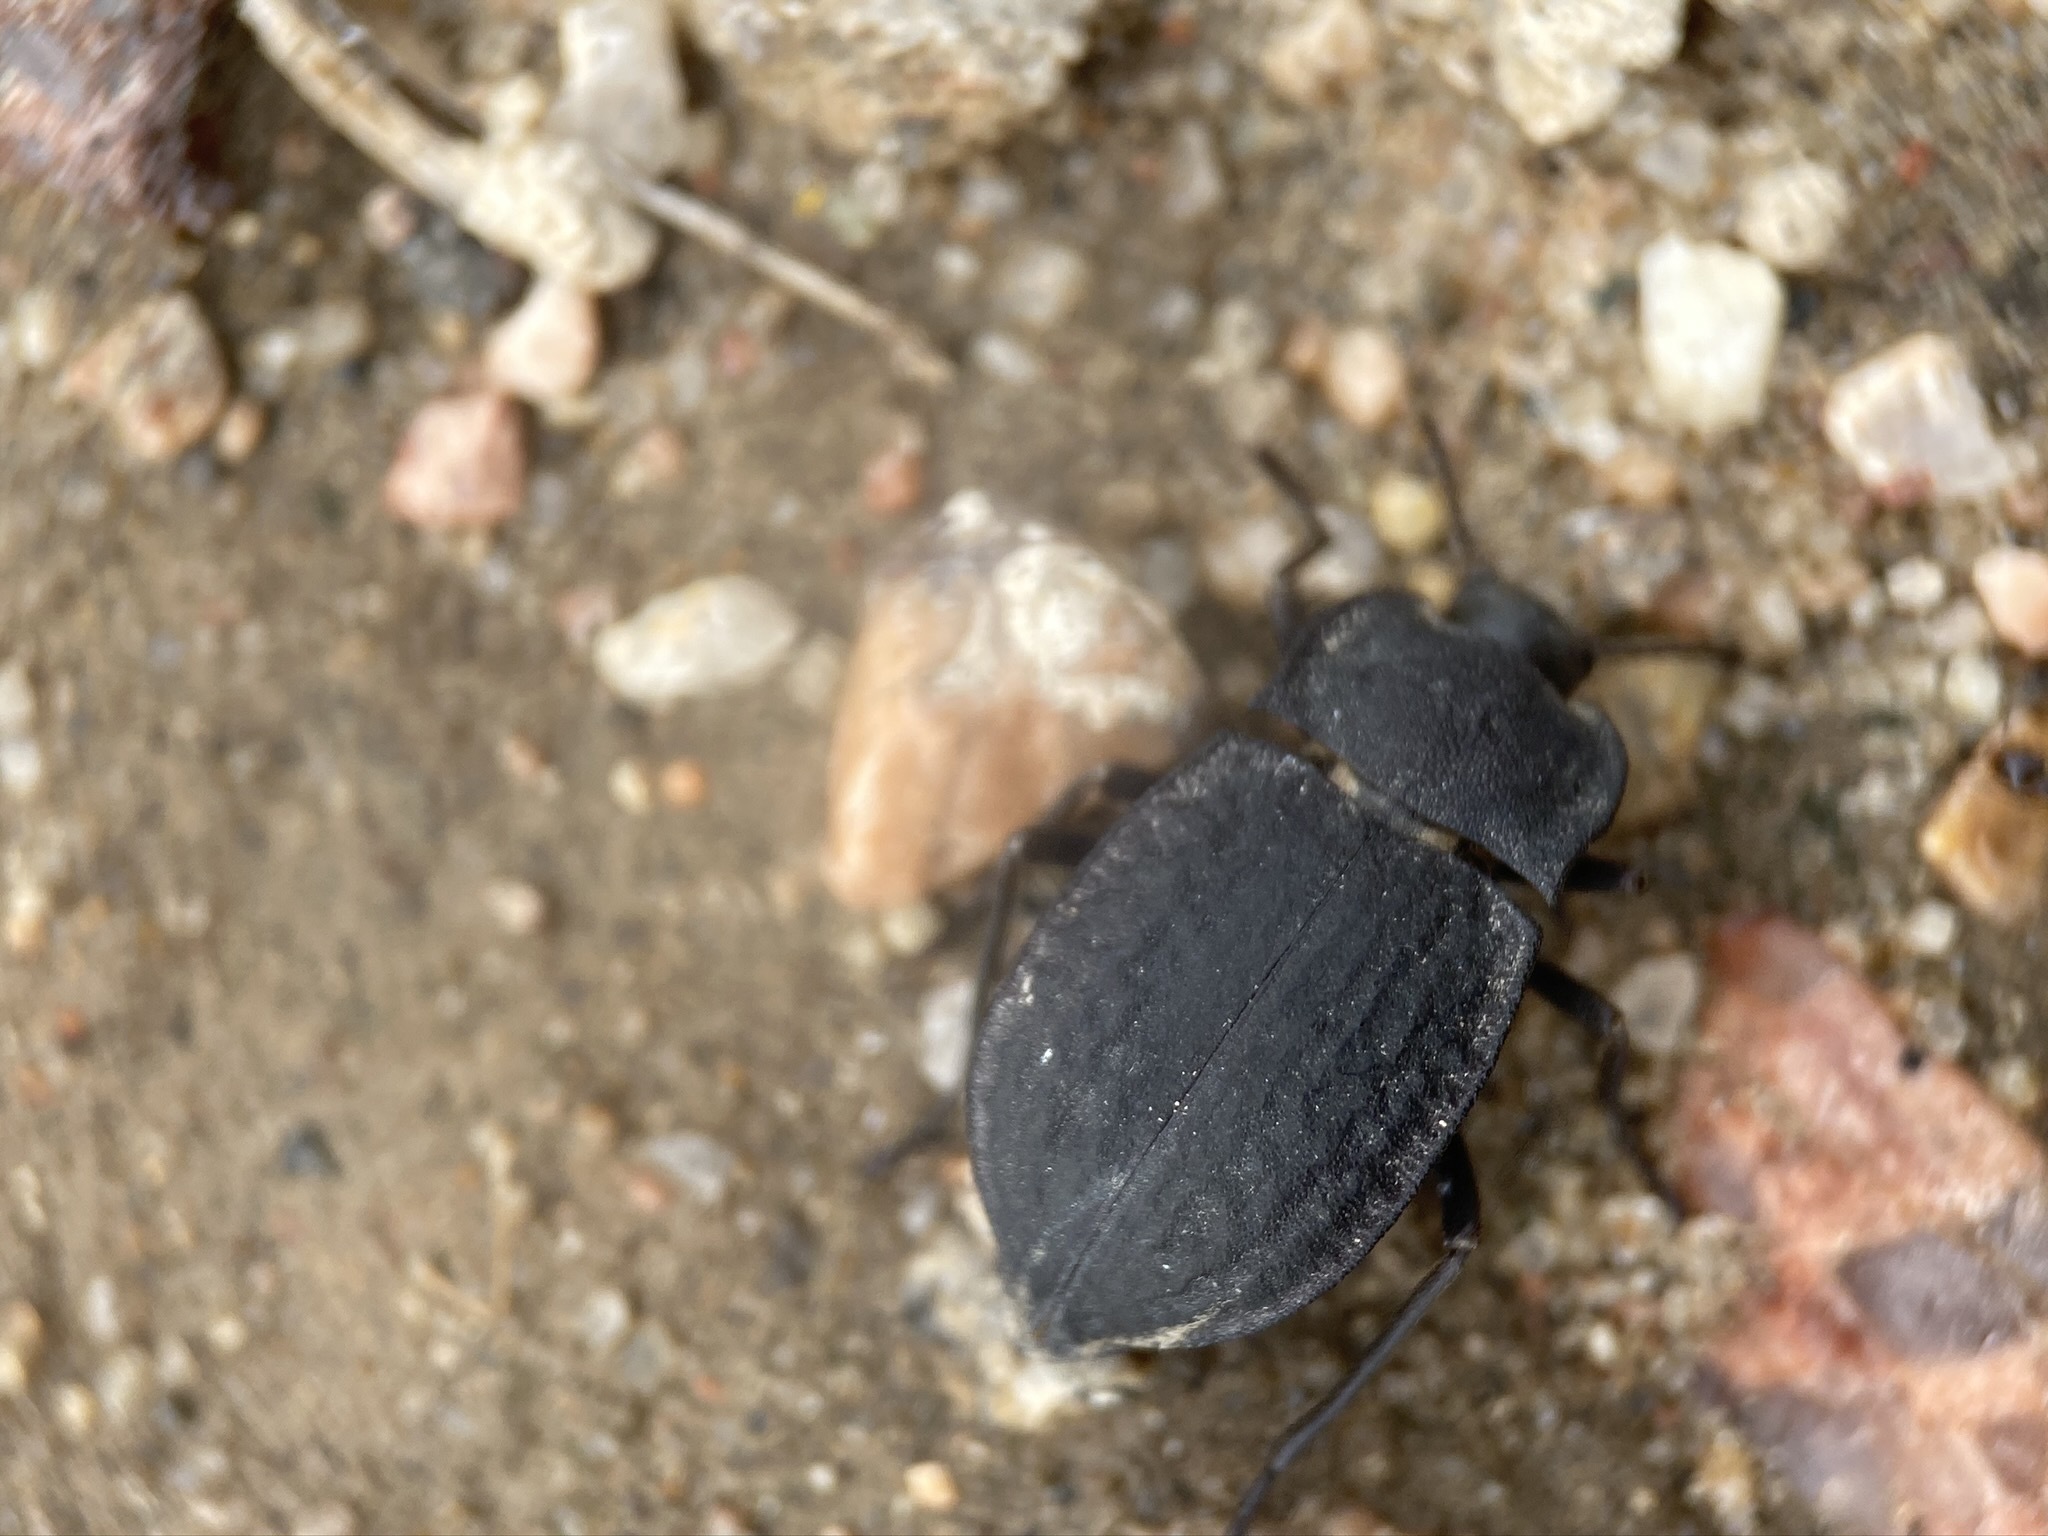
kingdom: Animalia
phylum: Arthropoda
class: Insecta
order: Coleoptera
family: Tenebrionidae
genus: Stenomorpha
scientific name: Stenomorpha opaca
